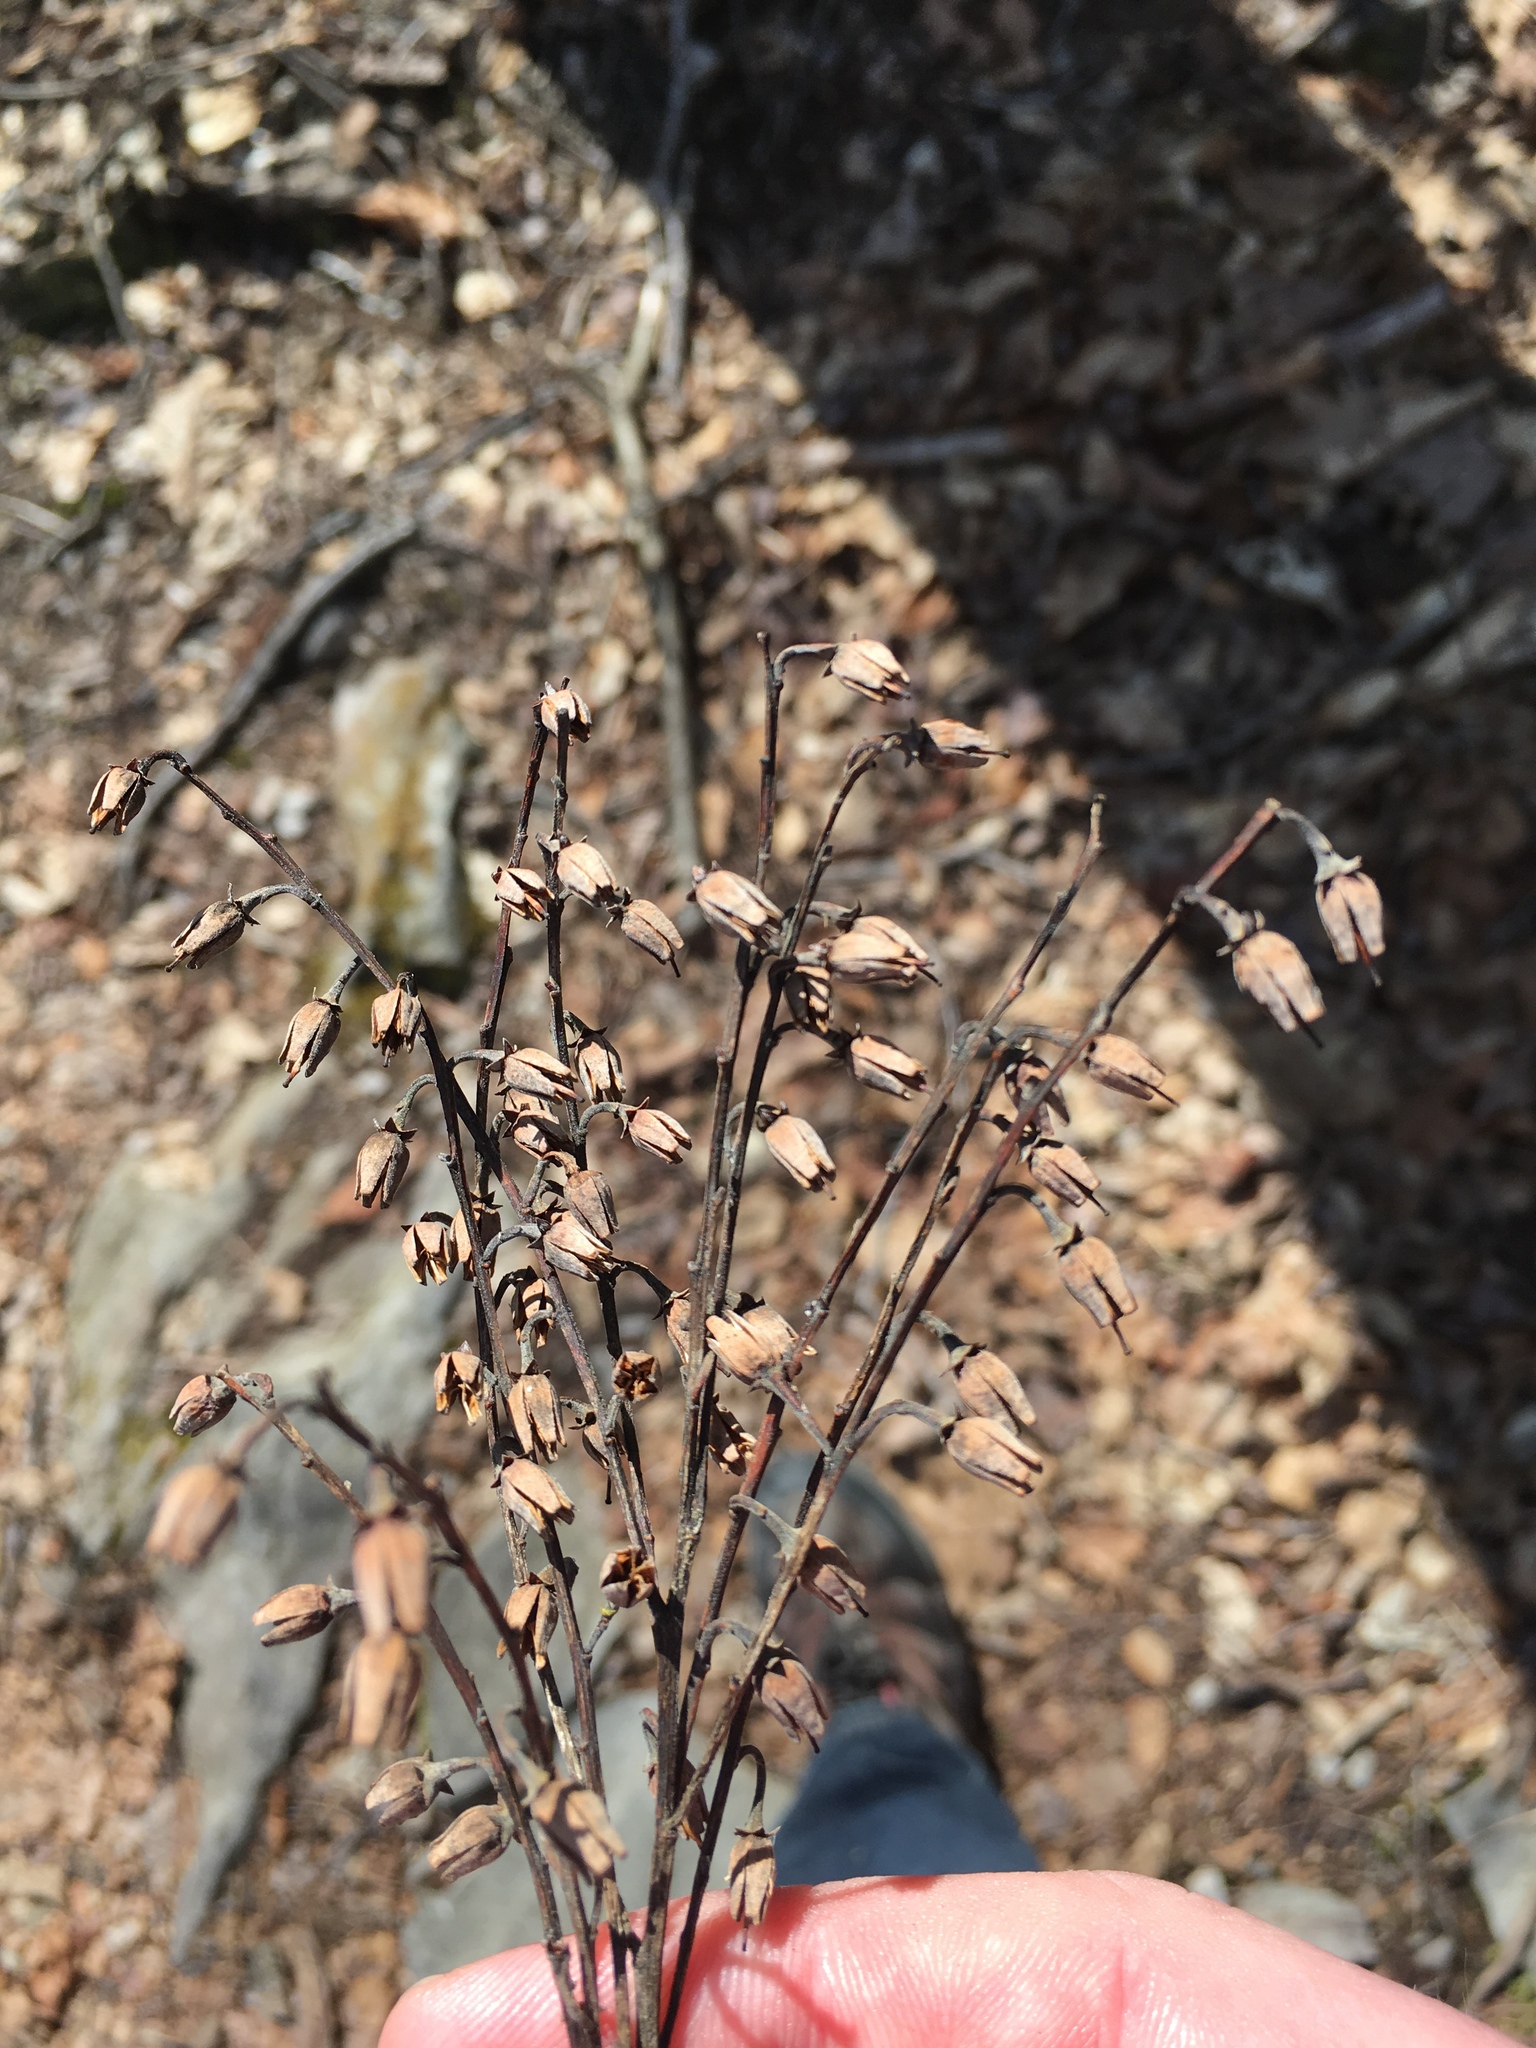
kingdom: Plantae
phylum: Tracheophyta
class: Magnoliopsida
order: Ericales
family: Ericaceae
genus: Oxydendrum
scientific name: Oxydendrum arboreum
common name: Sourwood
